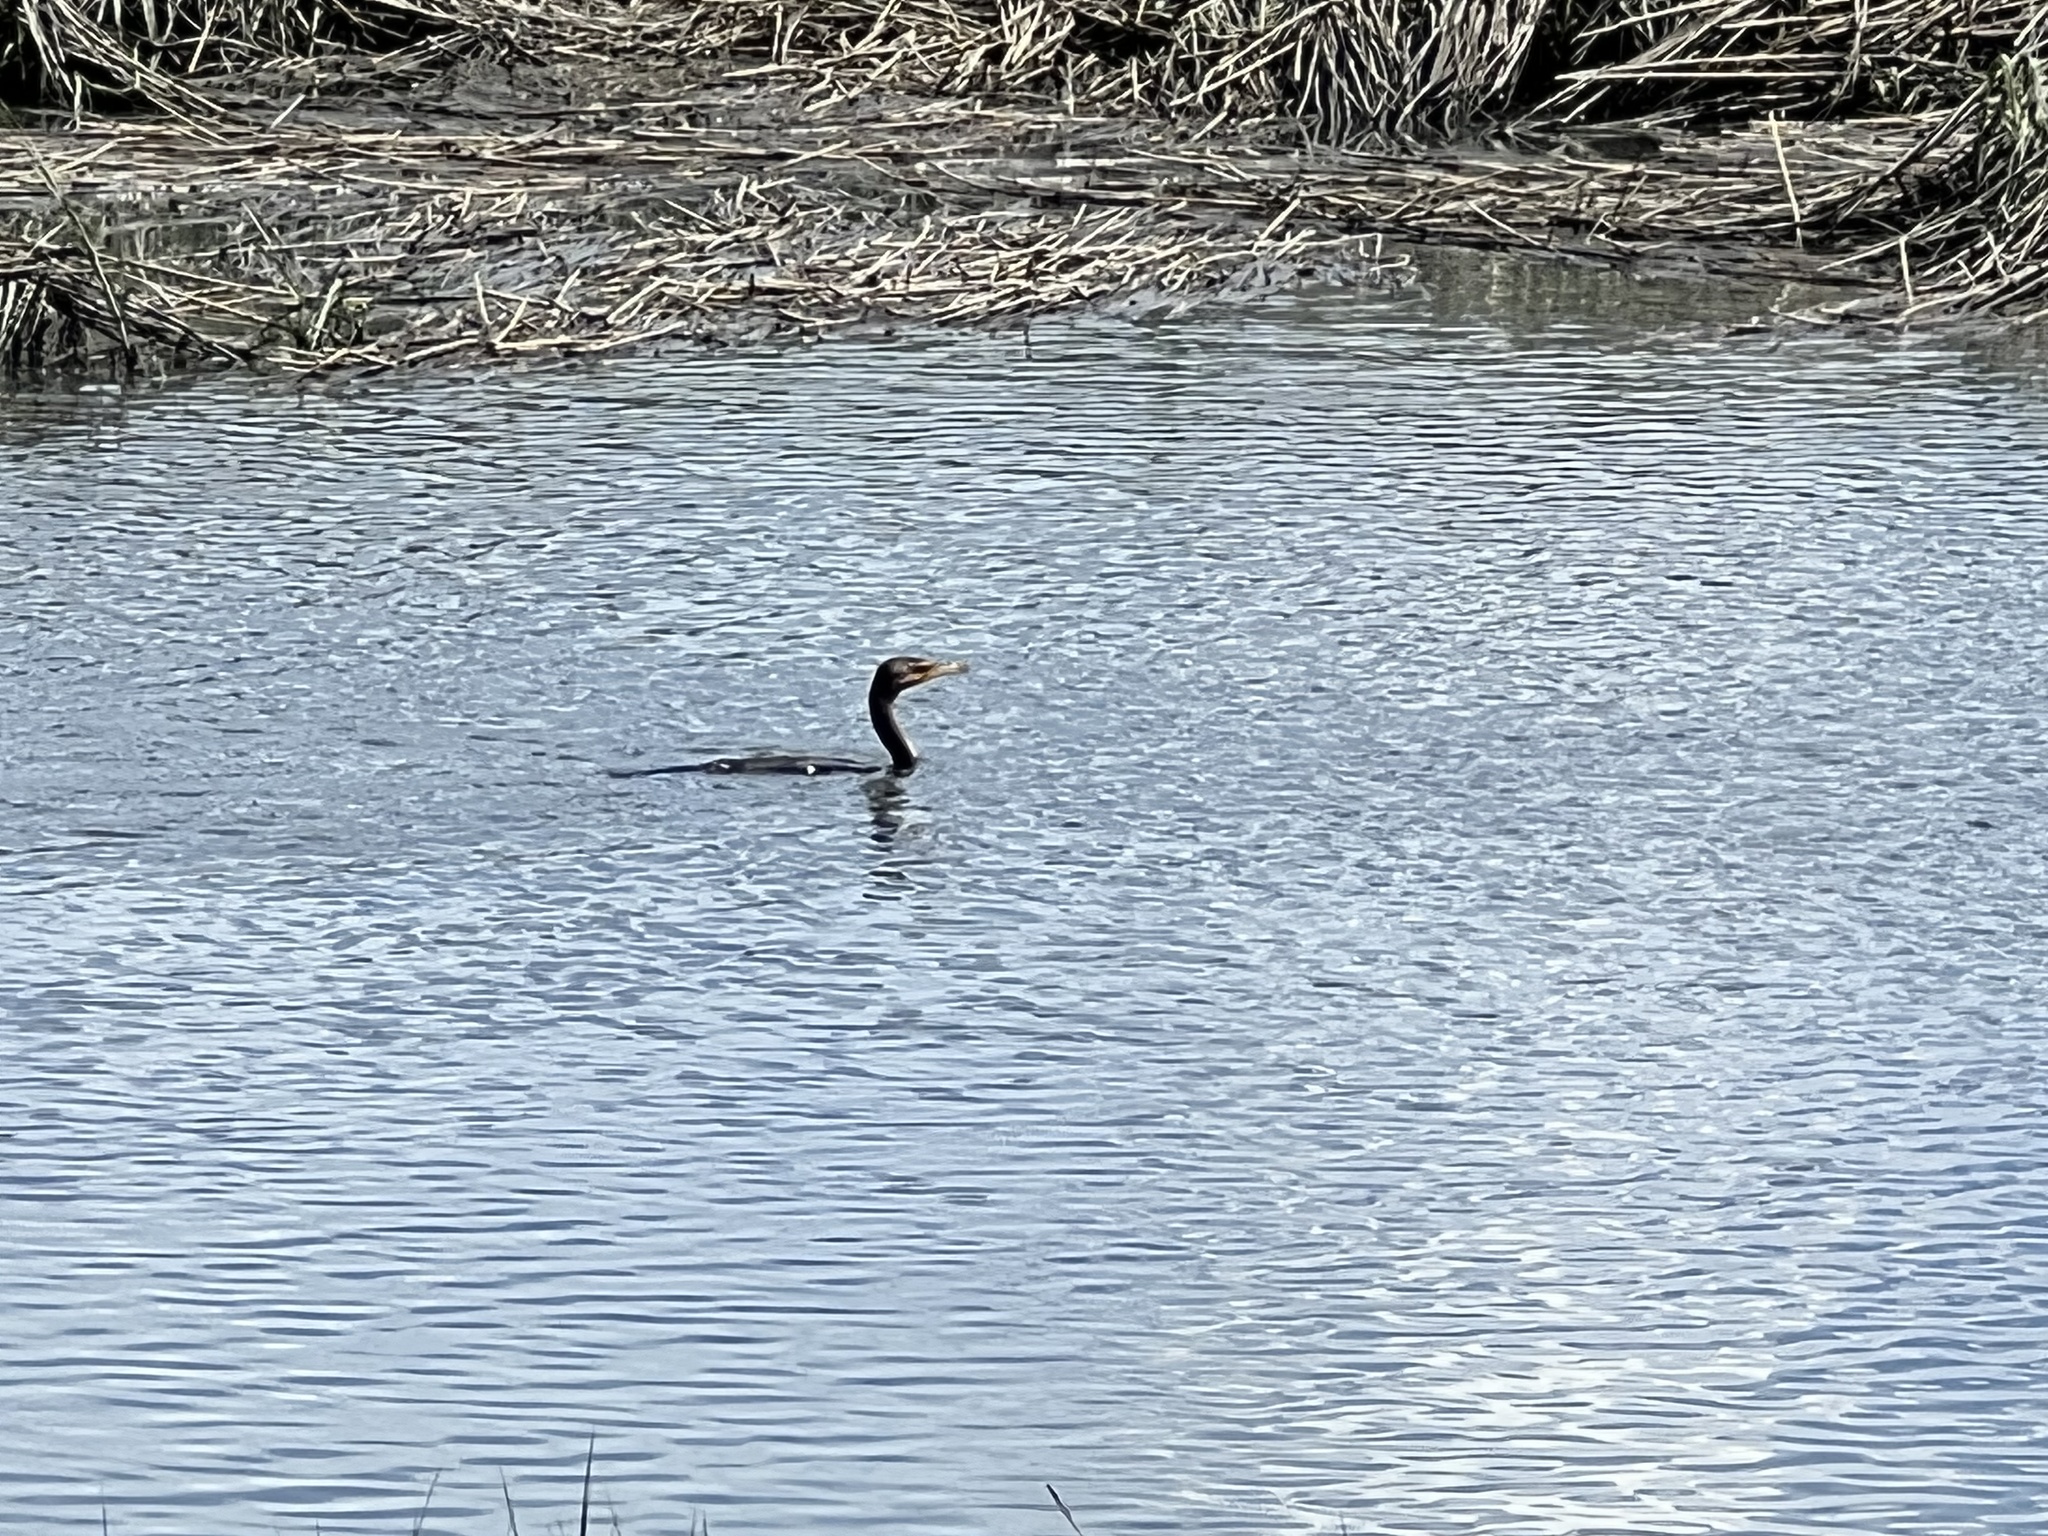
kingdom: Animalia
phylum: Chordata
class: Aves
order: Suliformes
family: Phalacrocoracidae
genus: Phalacrocorax
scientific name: Phalacrocorax auritus
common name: Double-crested cormorant
